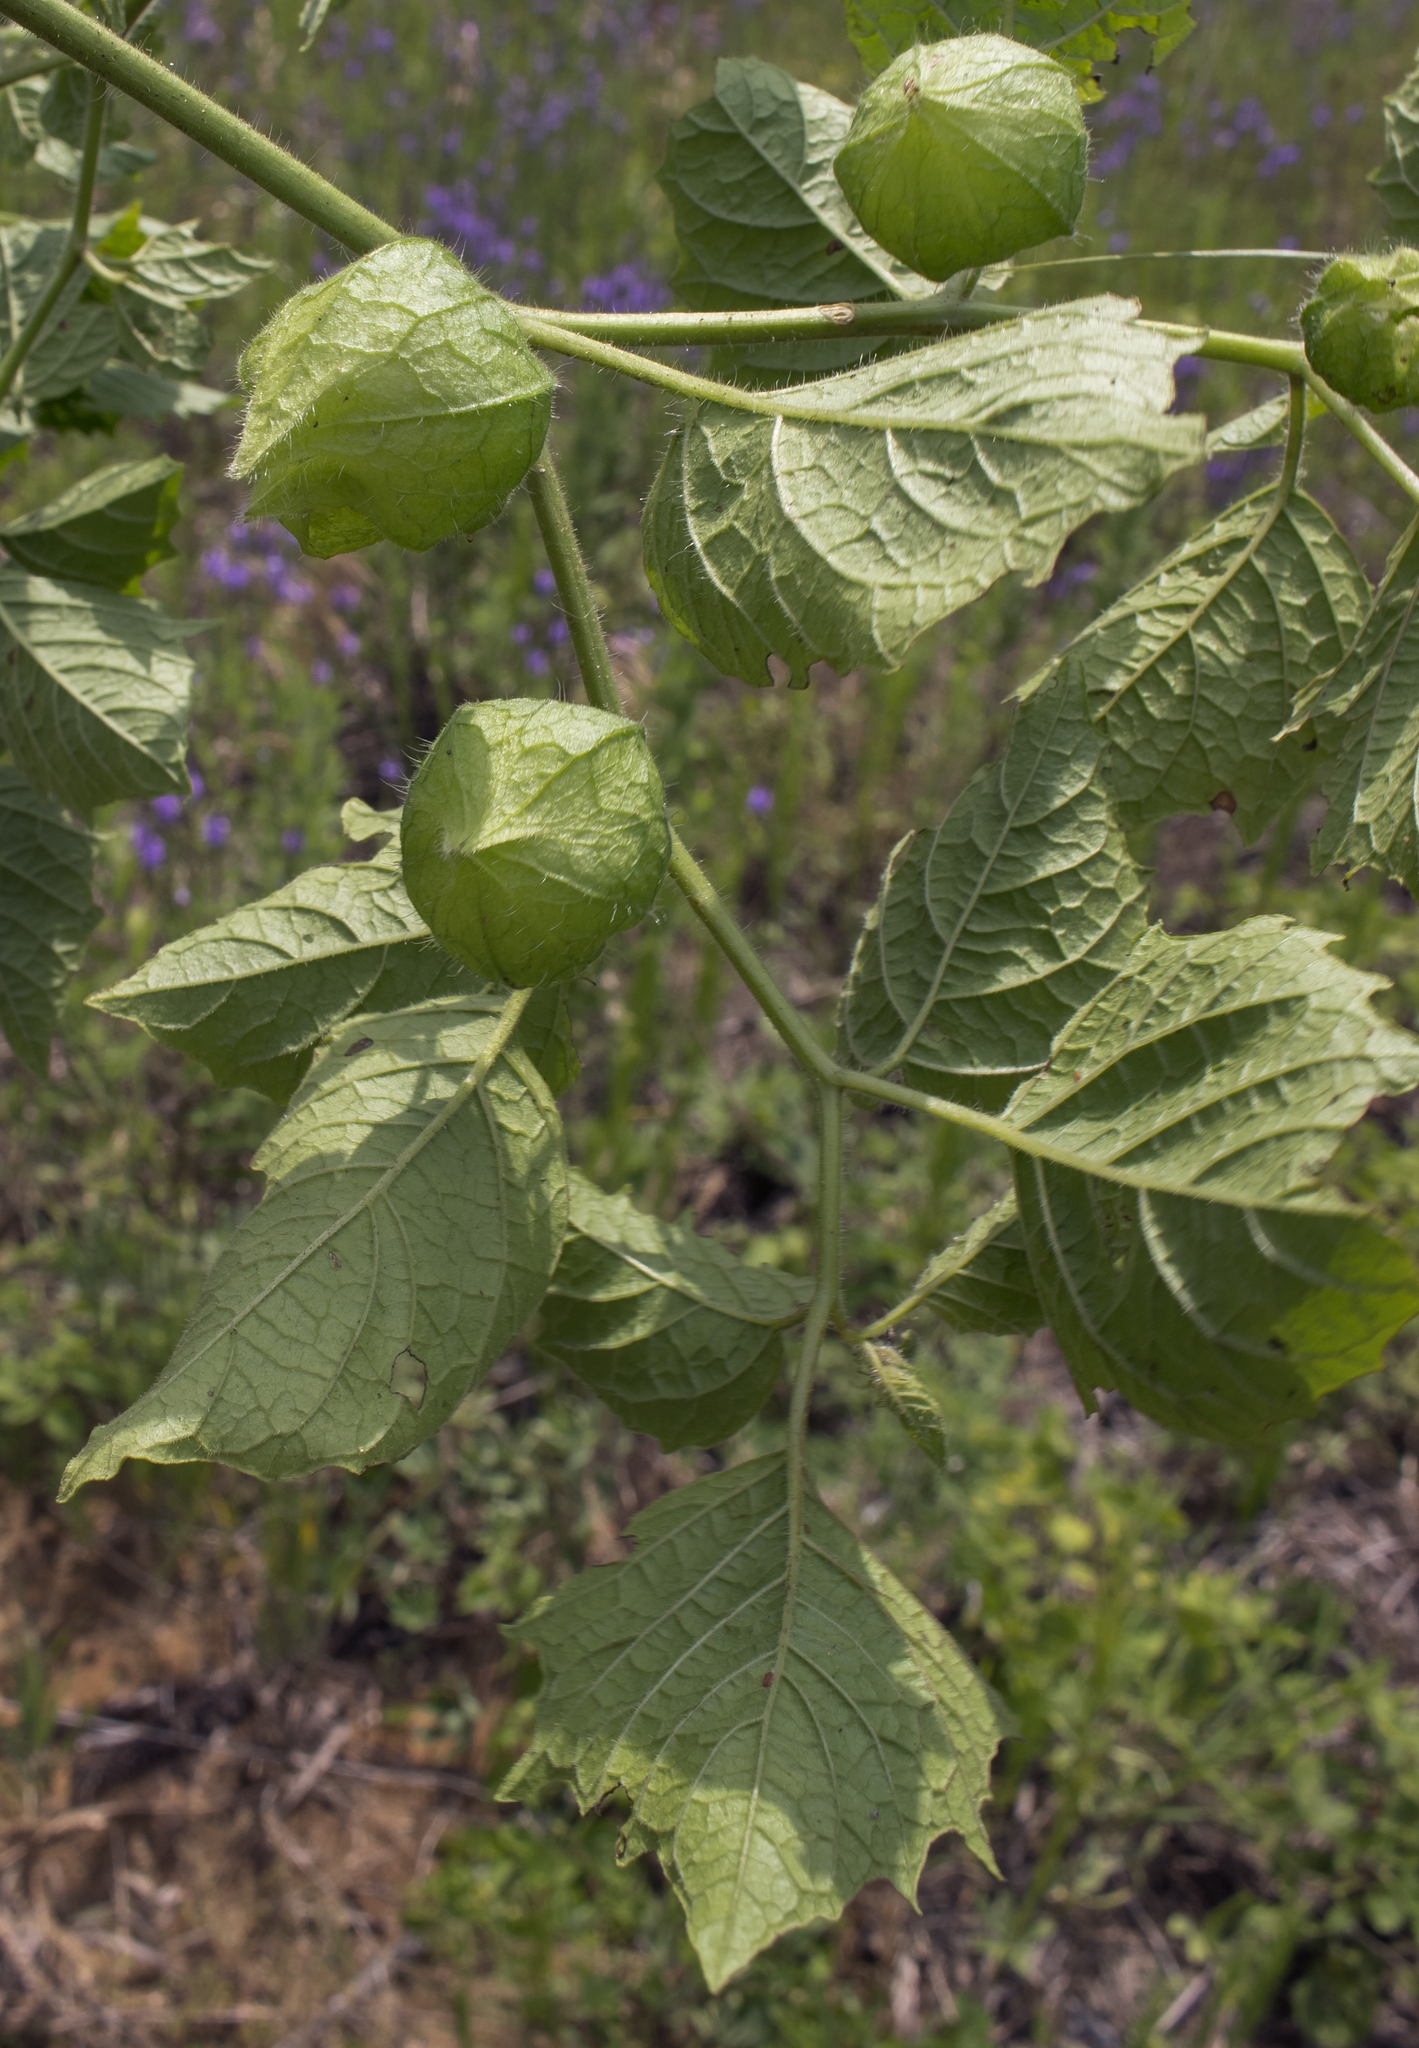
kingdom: Plantae
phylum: Tracheophyta
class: Magnoliopsida
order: Solanales
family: Solanaceae
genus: Physalis
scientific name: Physalis heterophylla
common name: Clammy ground-cherry
